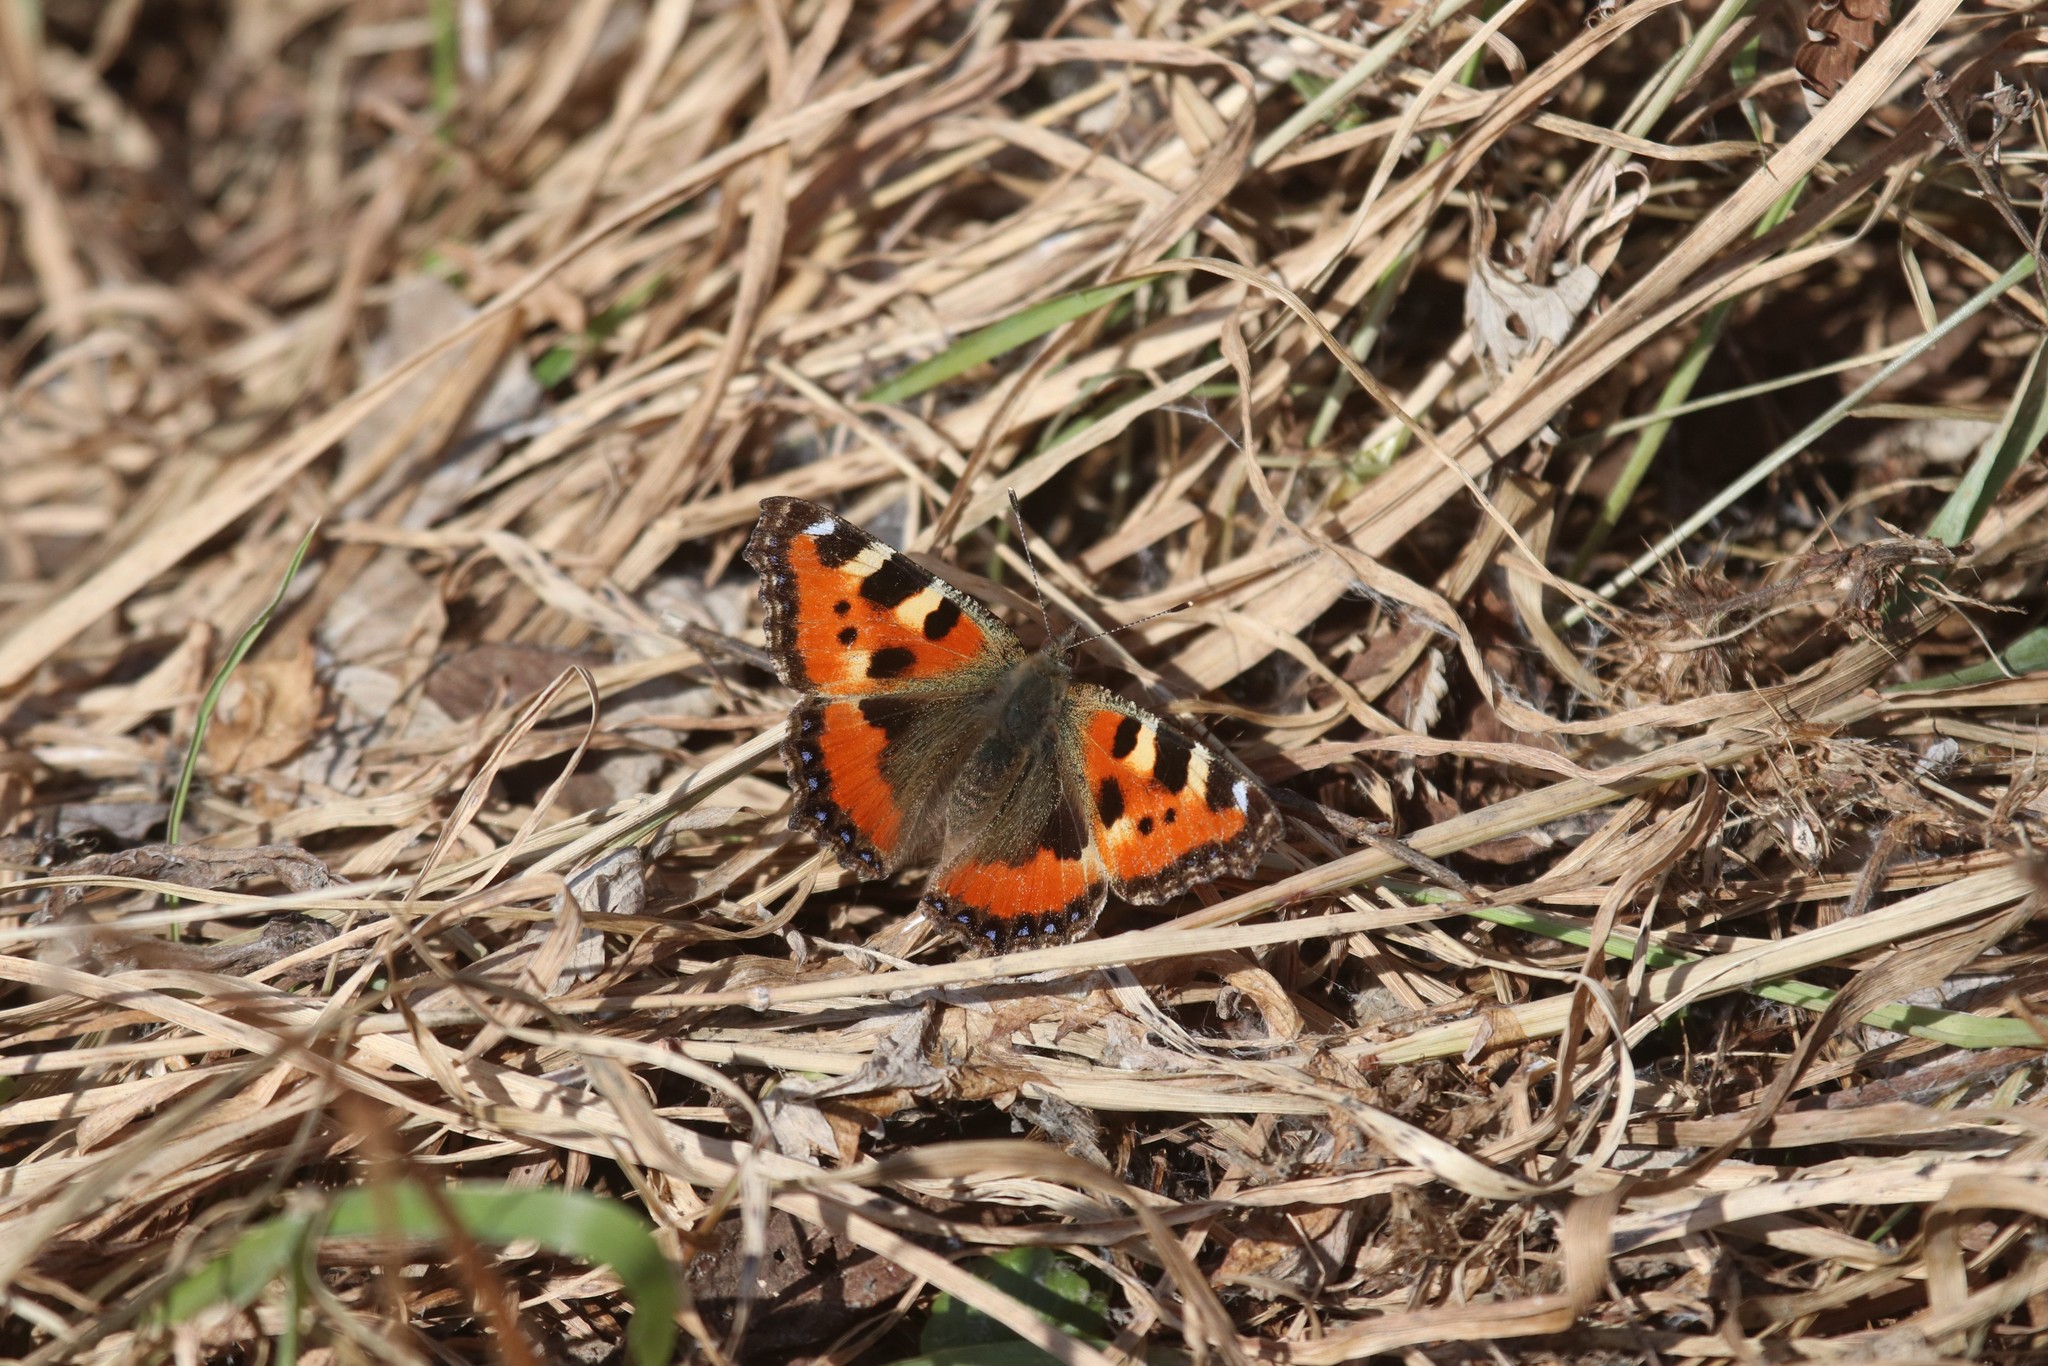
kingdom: Animalia
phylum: Arthropoda
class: Insecta
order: Lepidoptera
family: Nymphalidae
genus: Aglais
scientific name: Aglais urticae
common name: Small tortoiseshell
